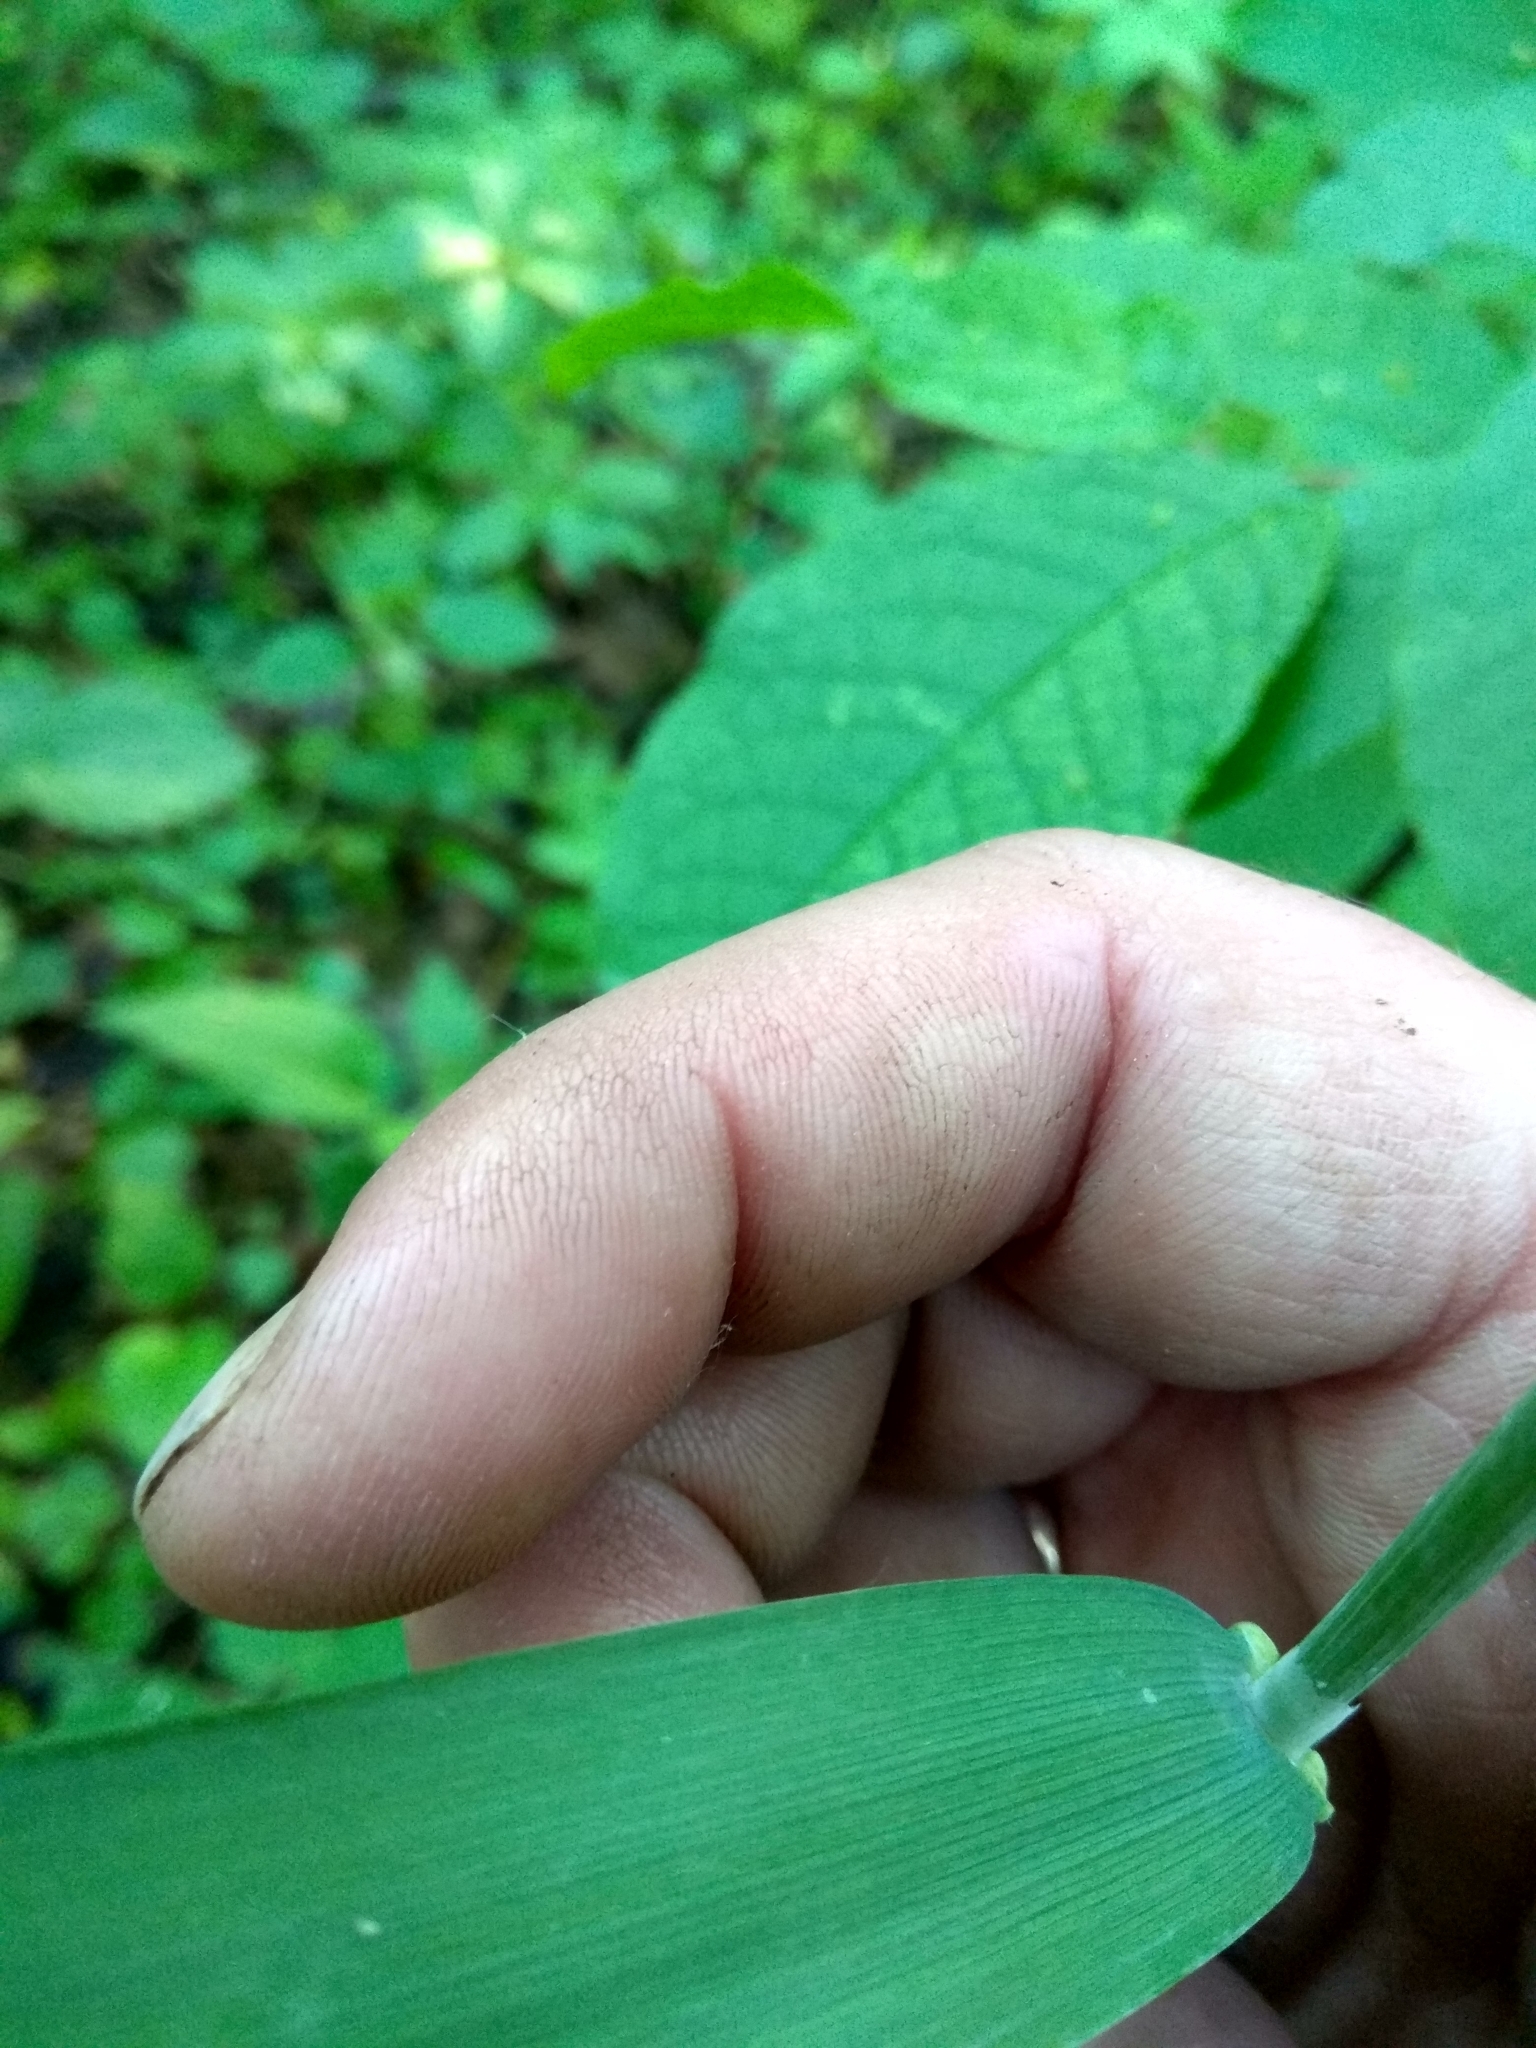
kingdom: Plantae
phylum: Tracheophyta
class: Liliopsida
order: Poales
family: Poaceae
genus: Milium
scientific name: Milium effusum
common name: Wood millet
